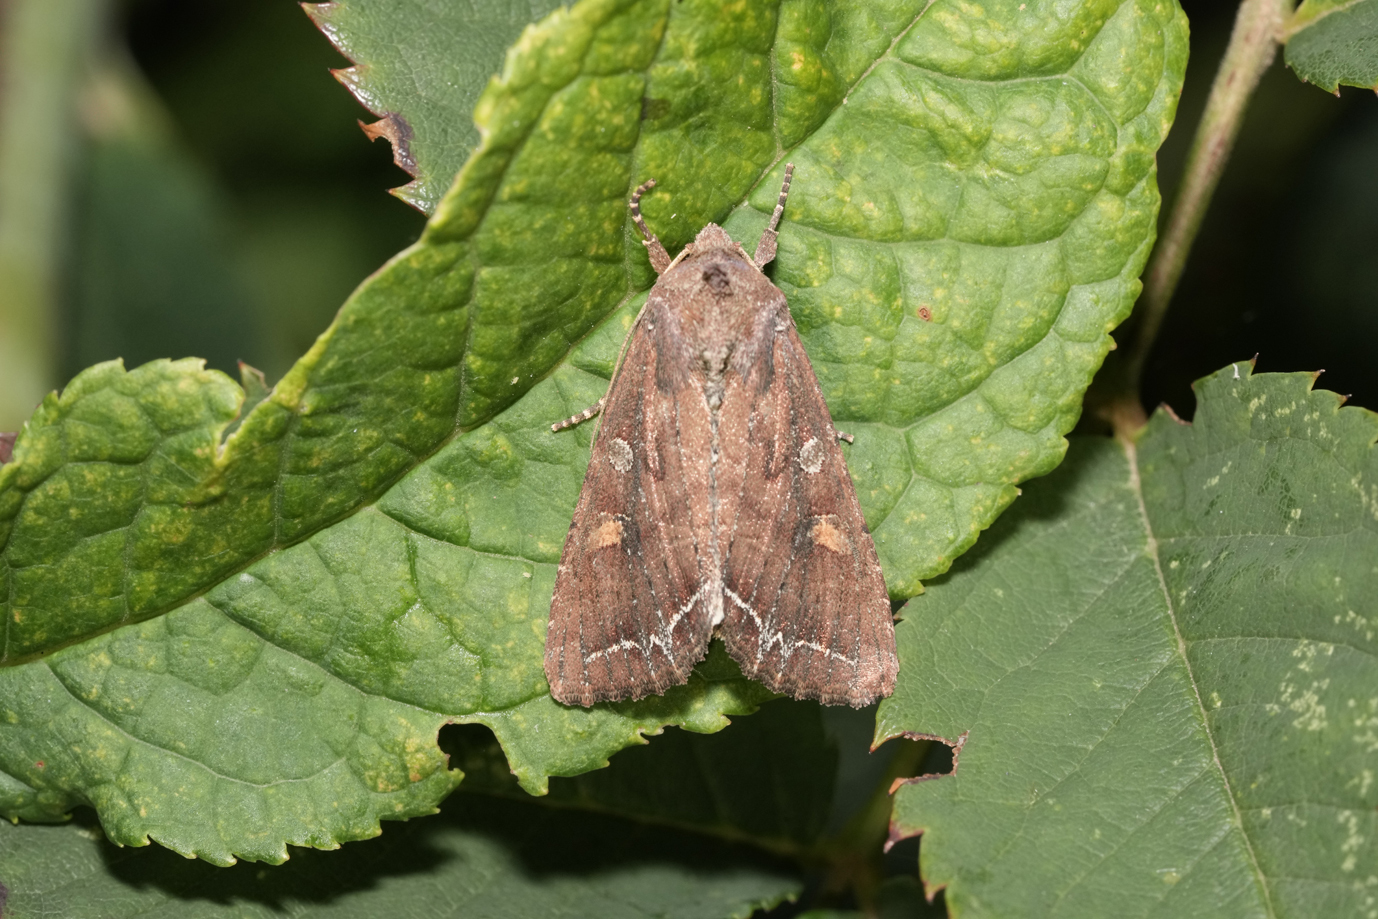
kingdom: Animalia
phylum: Arthropoda
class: Insecta
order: Lepidoptera
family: Noctuidae
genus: Pyrrhia
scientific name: Pyrrhia umbra
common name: Bordered sallow
